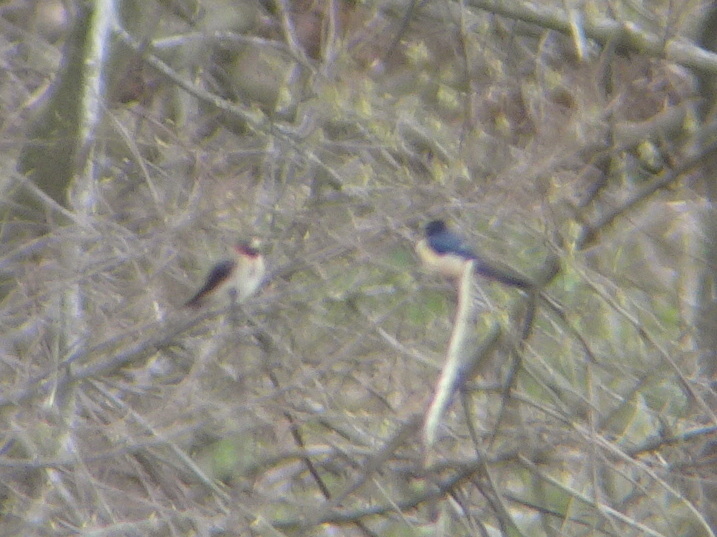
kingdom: Animalia
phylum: Chordata
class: Aves
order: Passeriformes
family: Hirundinidae
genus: Petrochelidon
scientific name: Petrochelidon pyrrhonota
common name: American cliff swallow
